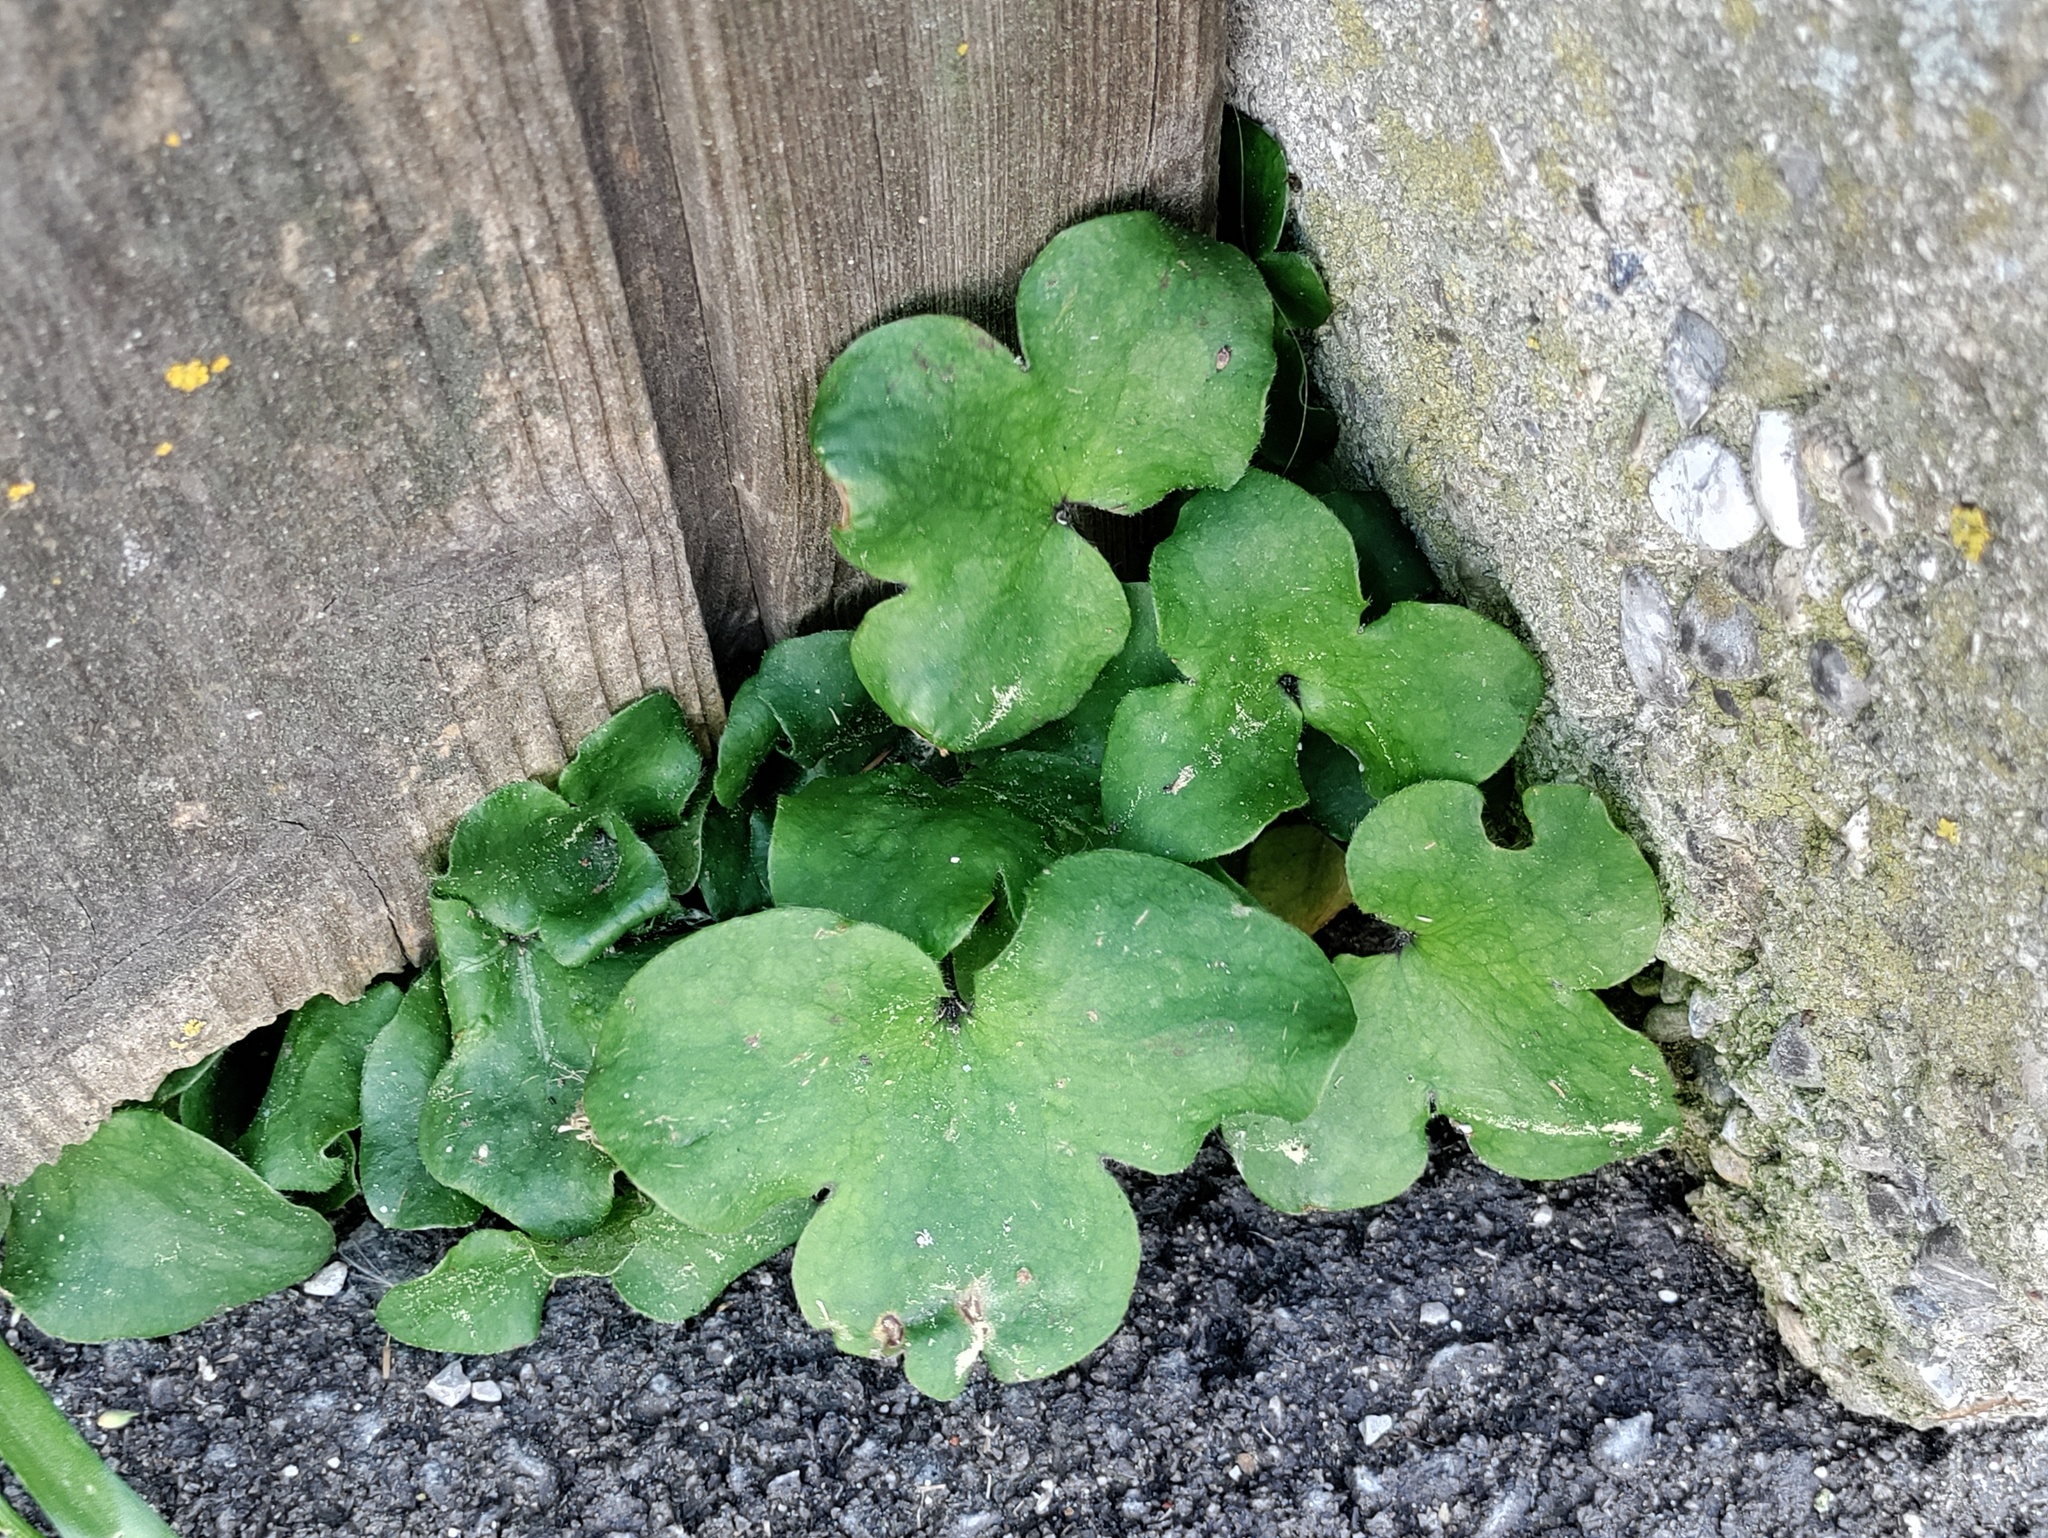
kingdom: Plantae
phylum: Tracheophyta
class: Magnoliopsida
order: Ranunculales
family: Ranunculaceae
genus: Hepatica
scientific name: Hepatica nobilis
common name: Liverleaf
